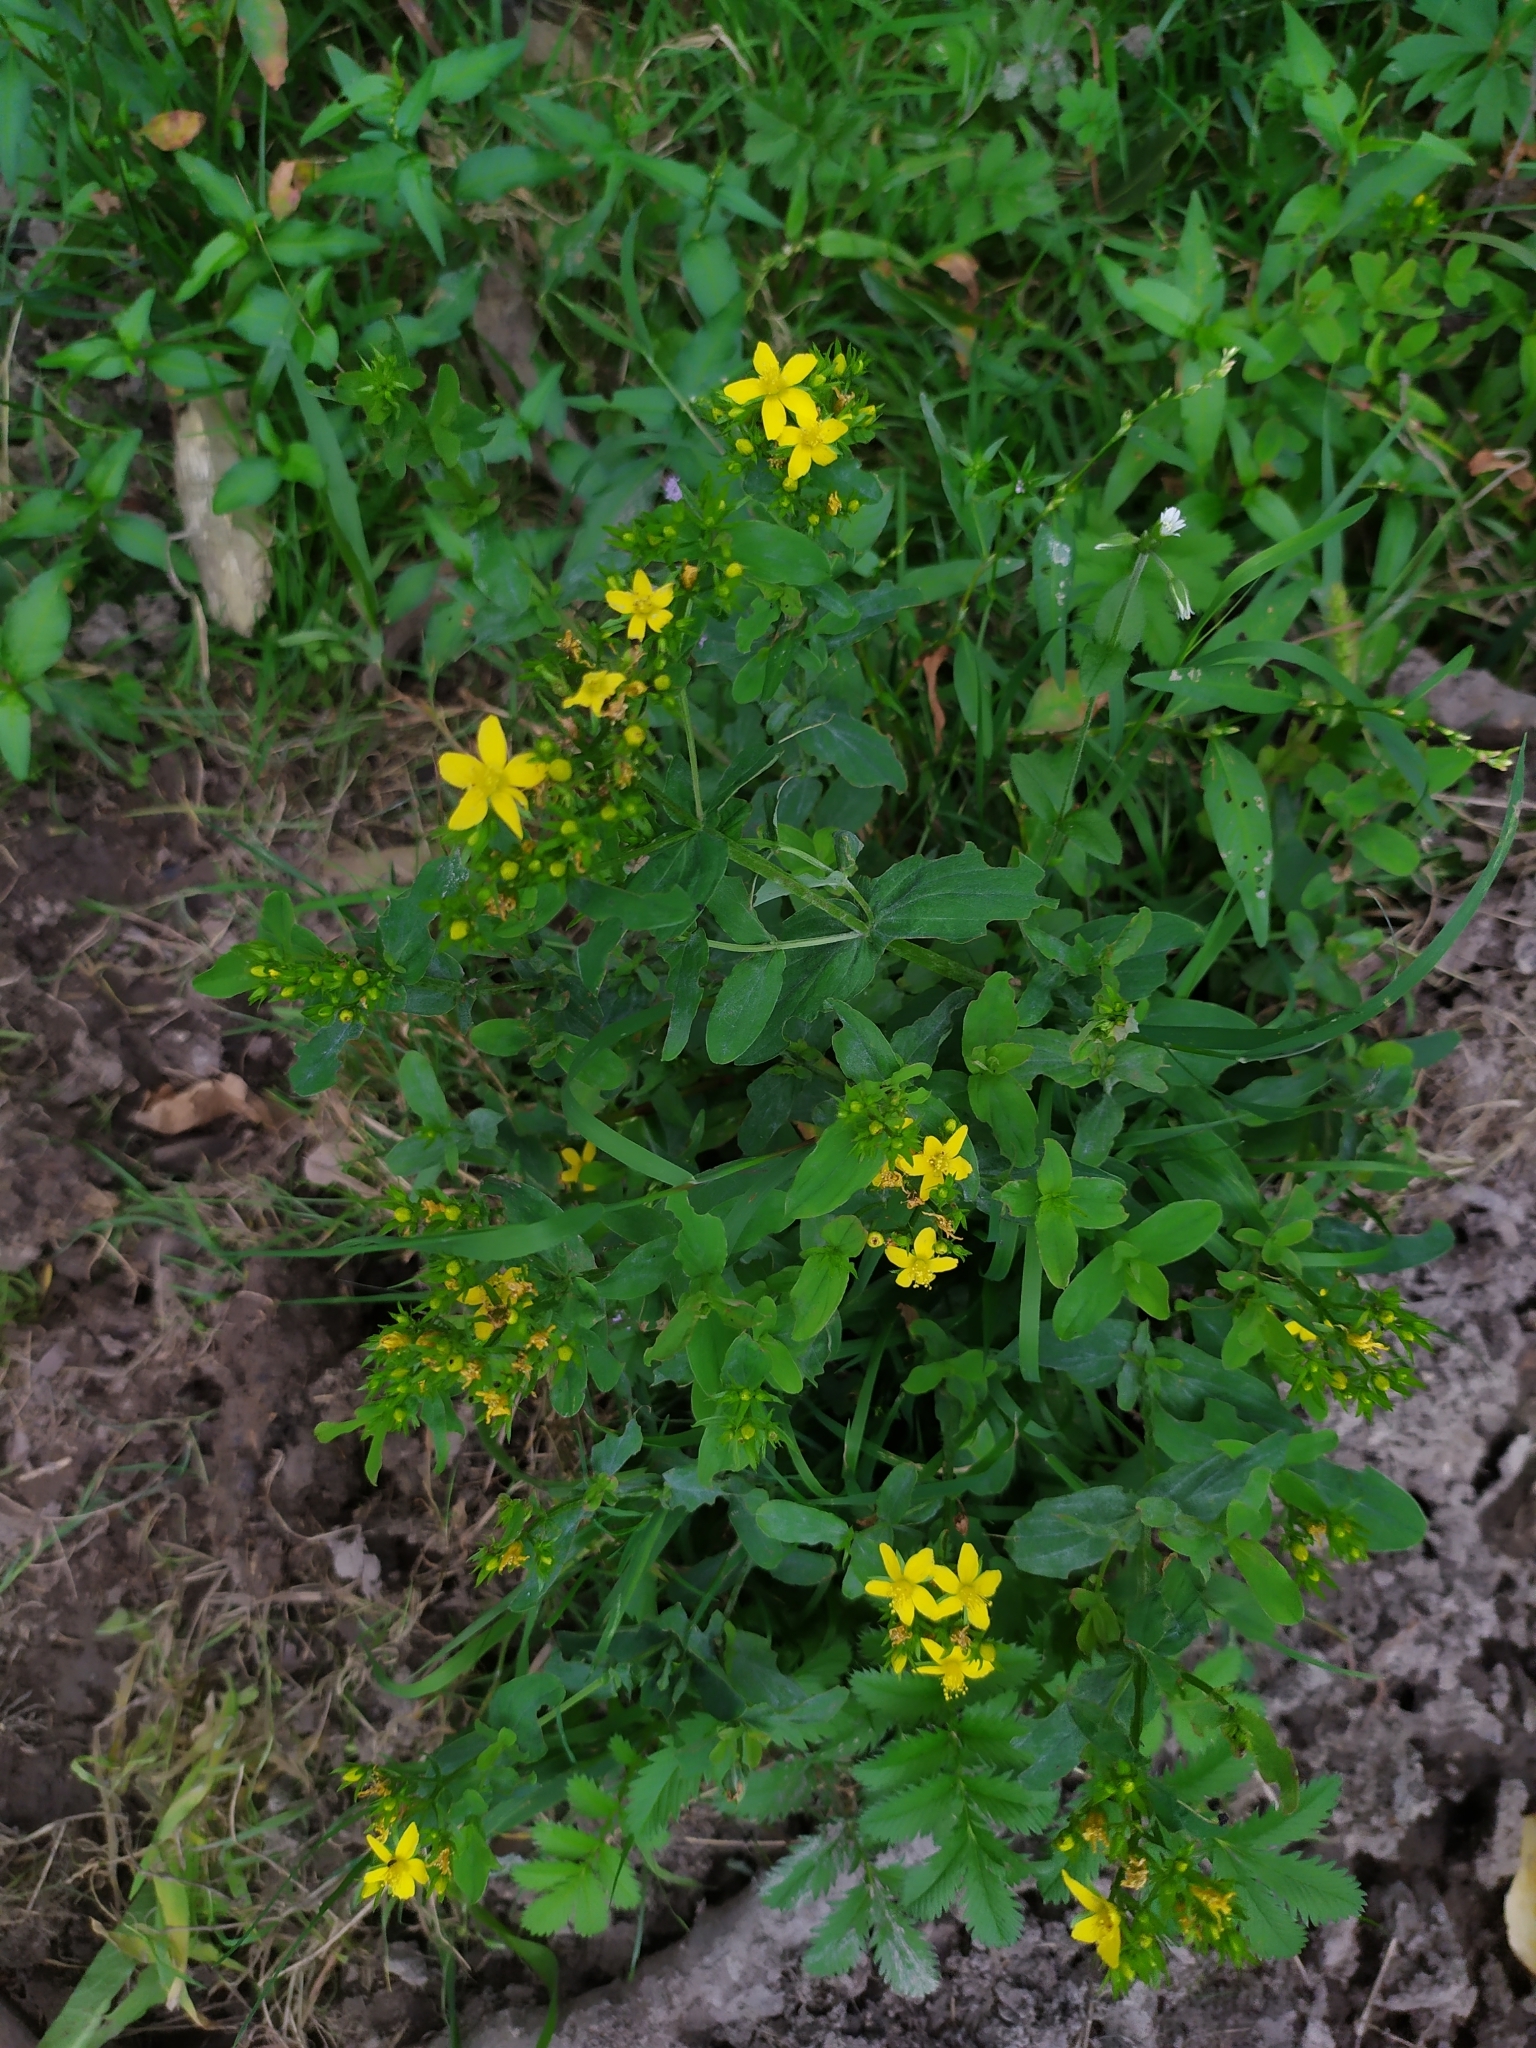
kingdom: Plantae
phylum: Tracheophyta
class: Magnoliopsida
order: Malpighiales
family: Hypericaceae
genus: Hypericum
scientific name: Hypericum tetrapterum
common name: Square-stalked st. john's-wort
